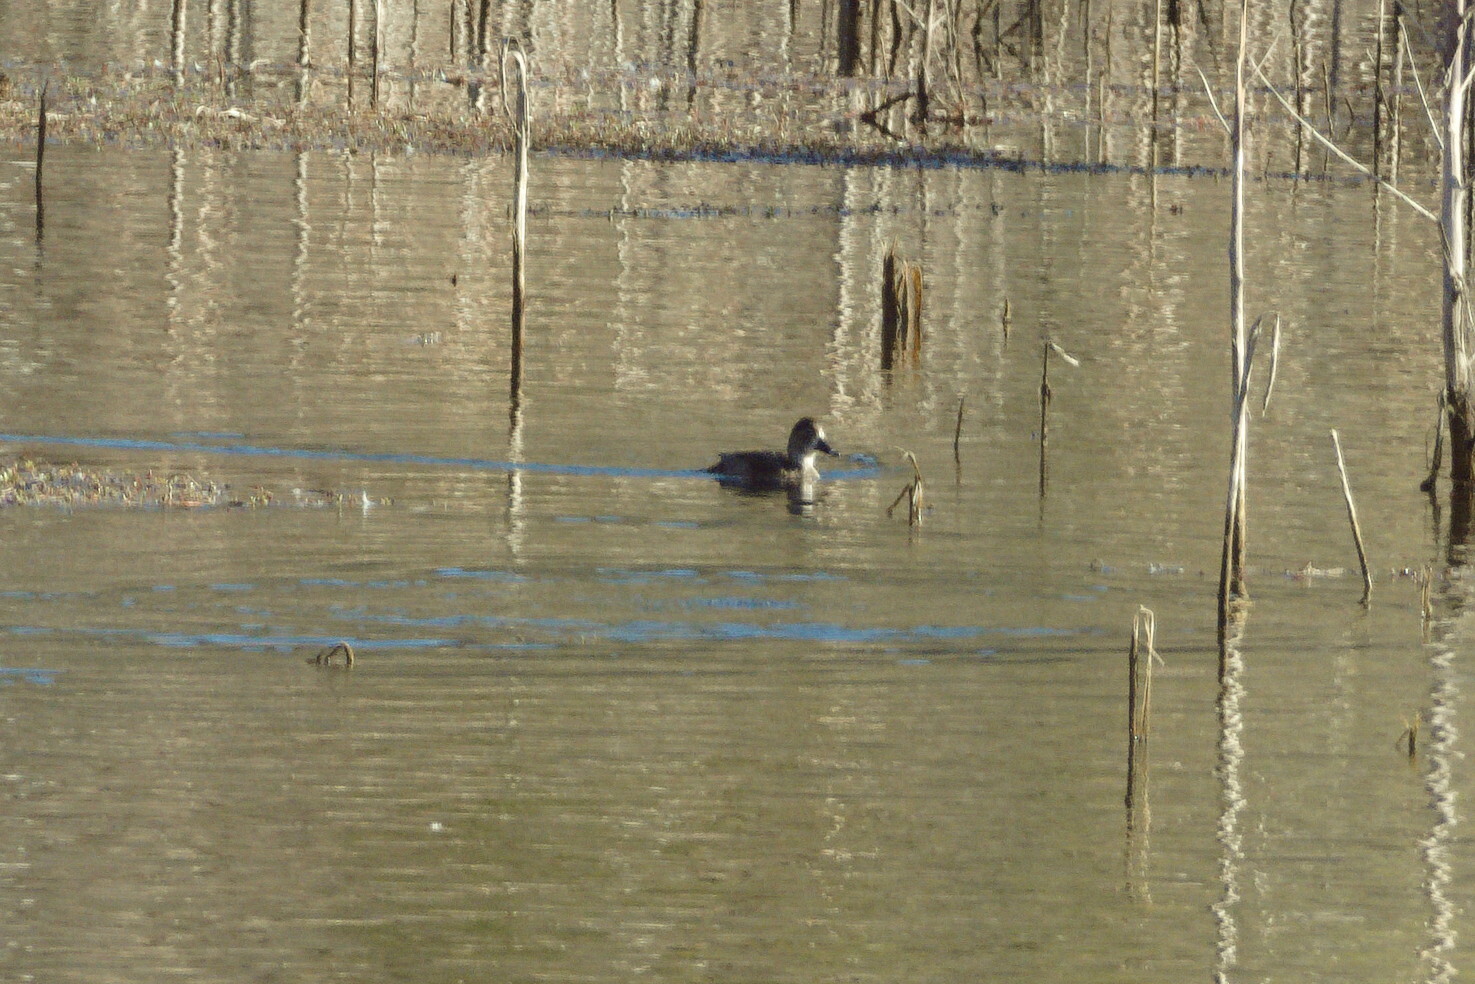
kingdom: Animalia
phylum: Chordata
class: Aves
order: Anseriformes
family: Anatidae
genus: Aythya
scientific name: Aythya collaris
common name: Ring-necked duck
